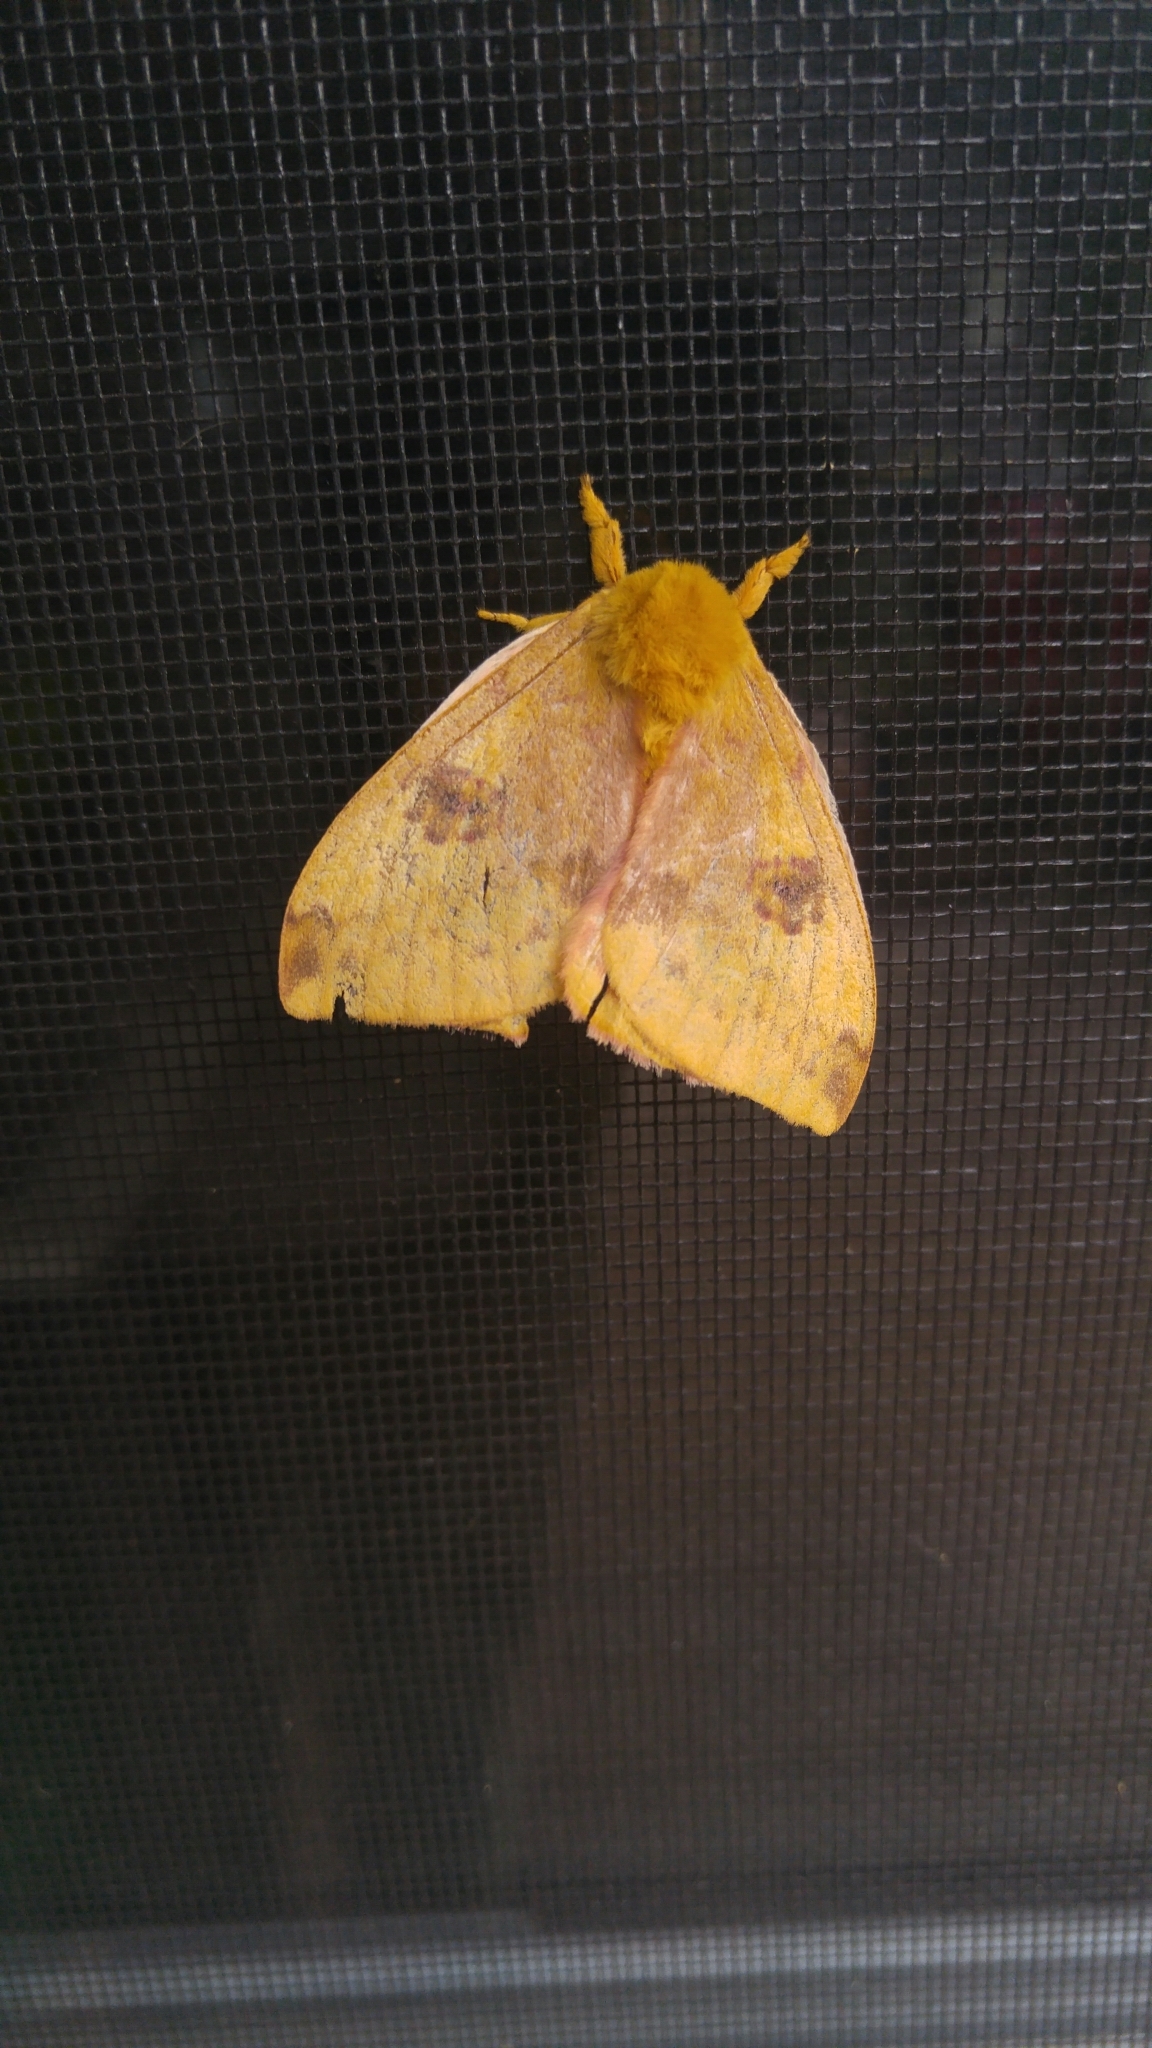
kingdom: Animalia
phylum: Arthropoda
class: Insecta
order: Lepidoptera
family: Saturniidae
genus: Automeris
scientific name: Automeris io
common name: Io moth
